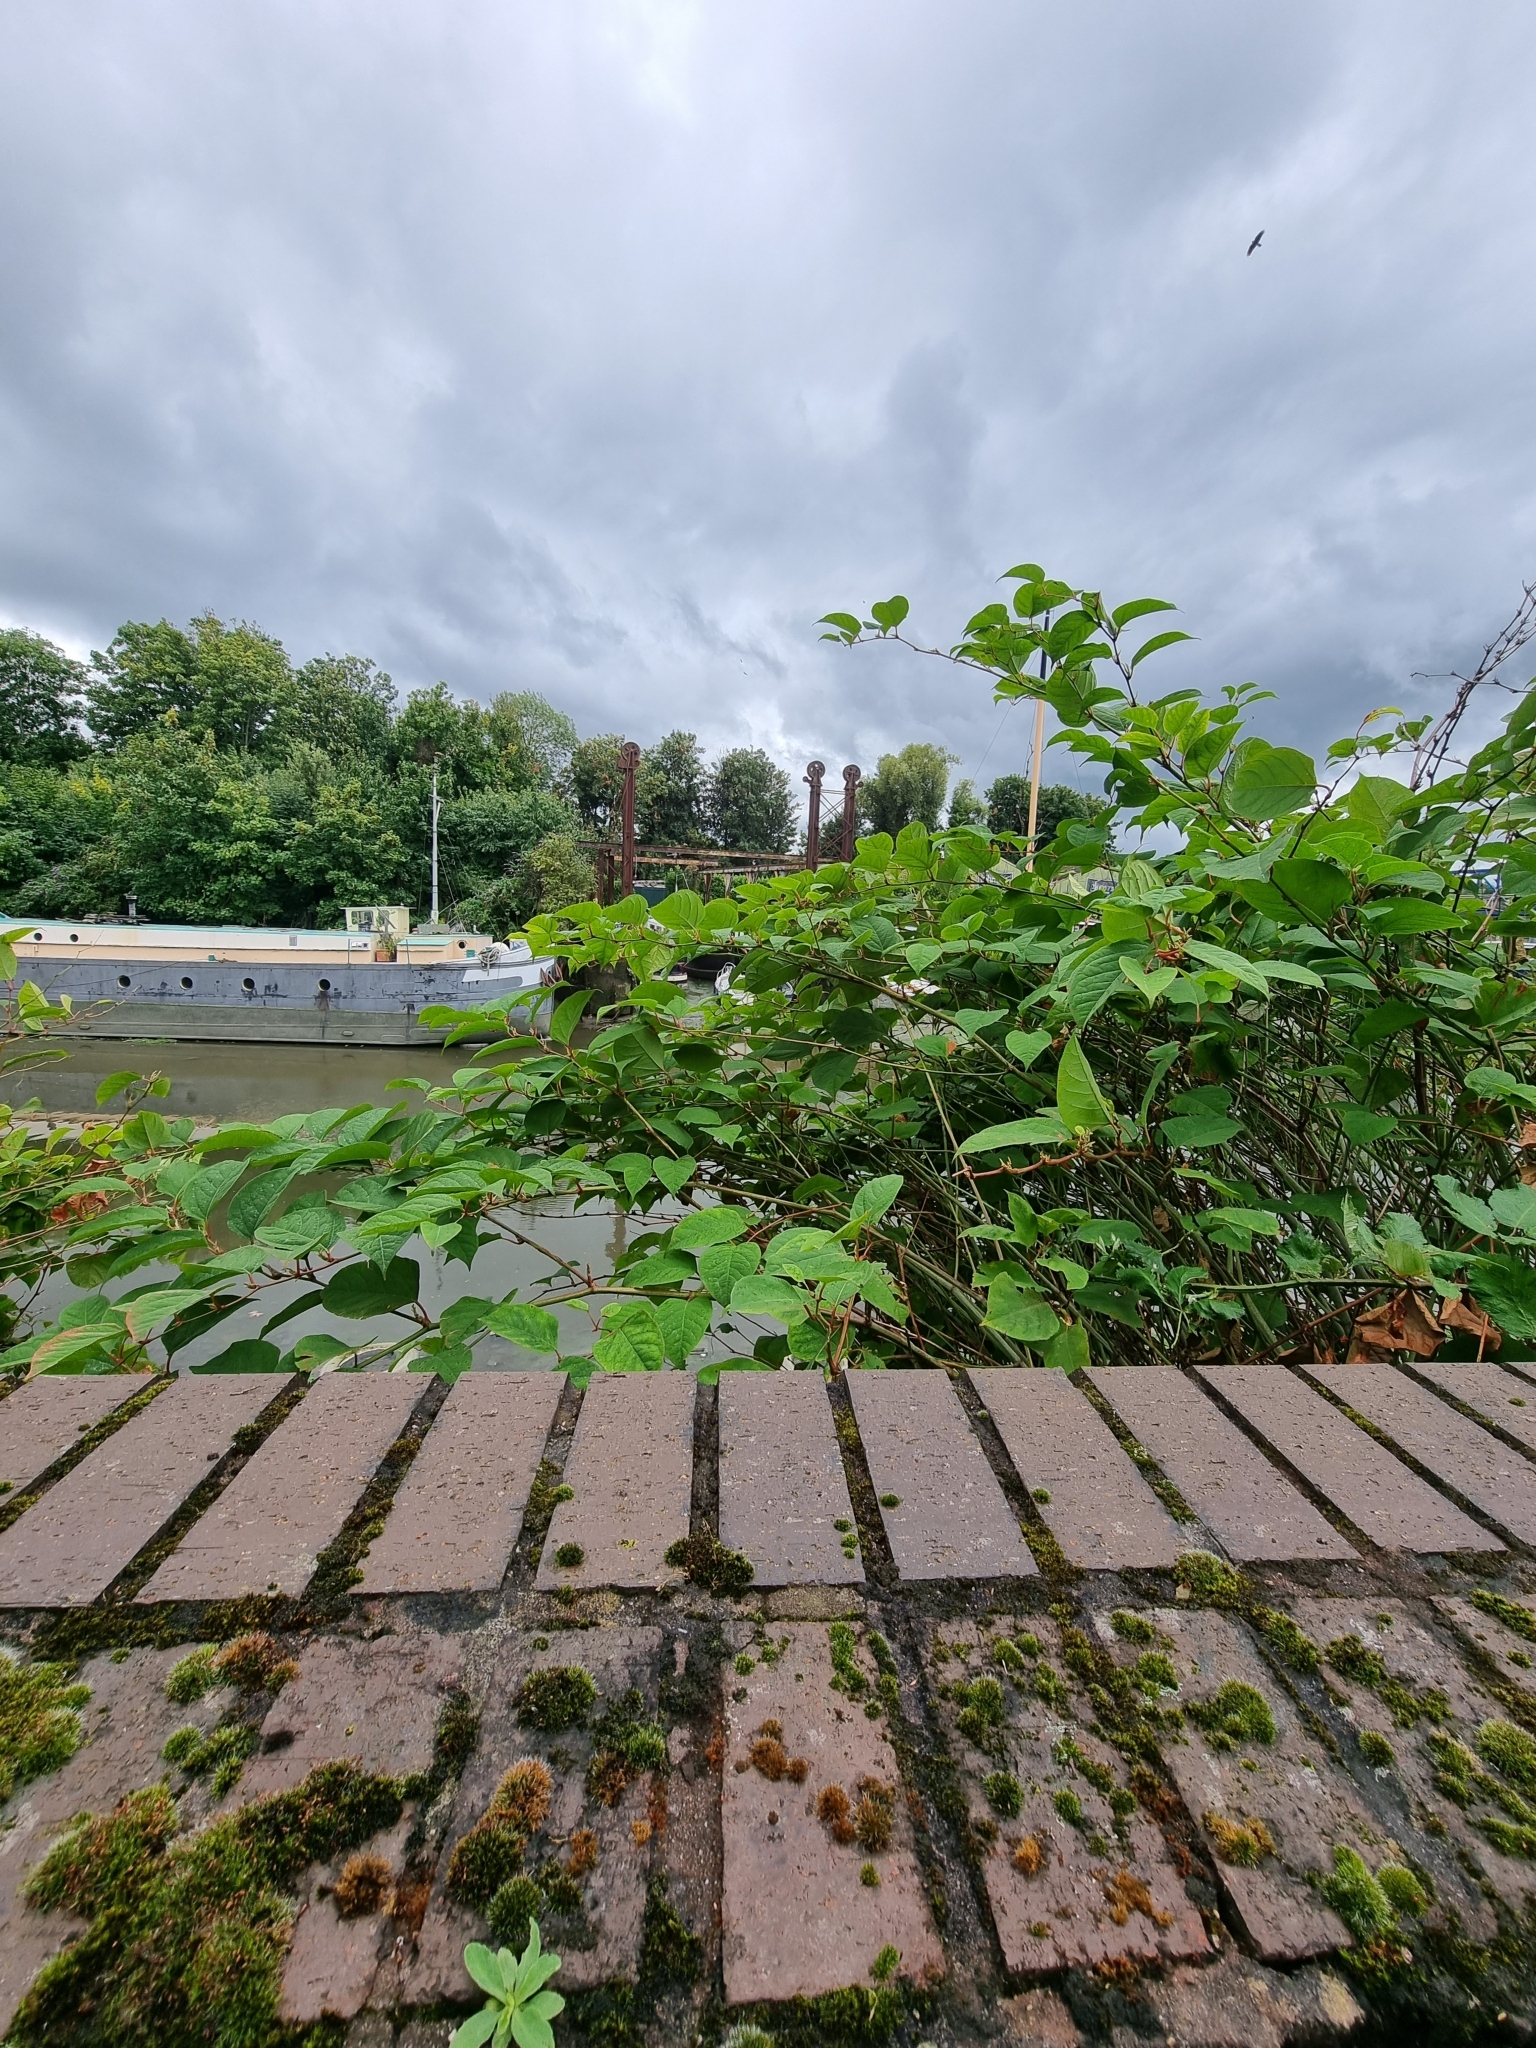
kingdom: Plantae
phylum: Tracheophyta
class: Magnoliopsida
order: Caryophyllales
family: Polygonaceae
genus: Reynoutria
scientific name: Reynoutria japonica
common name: Japanese knotweed
